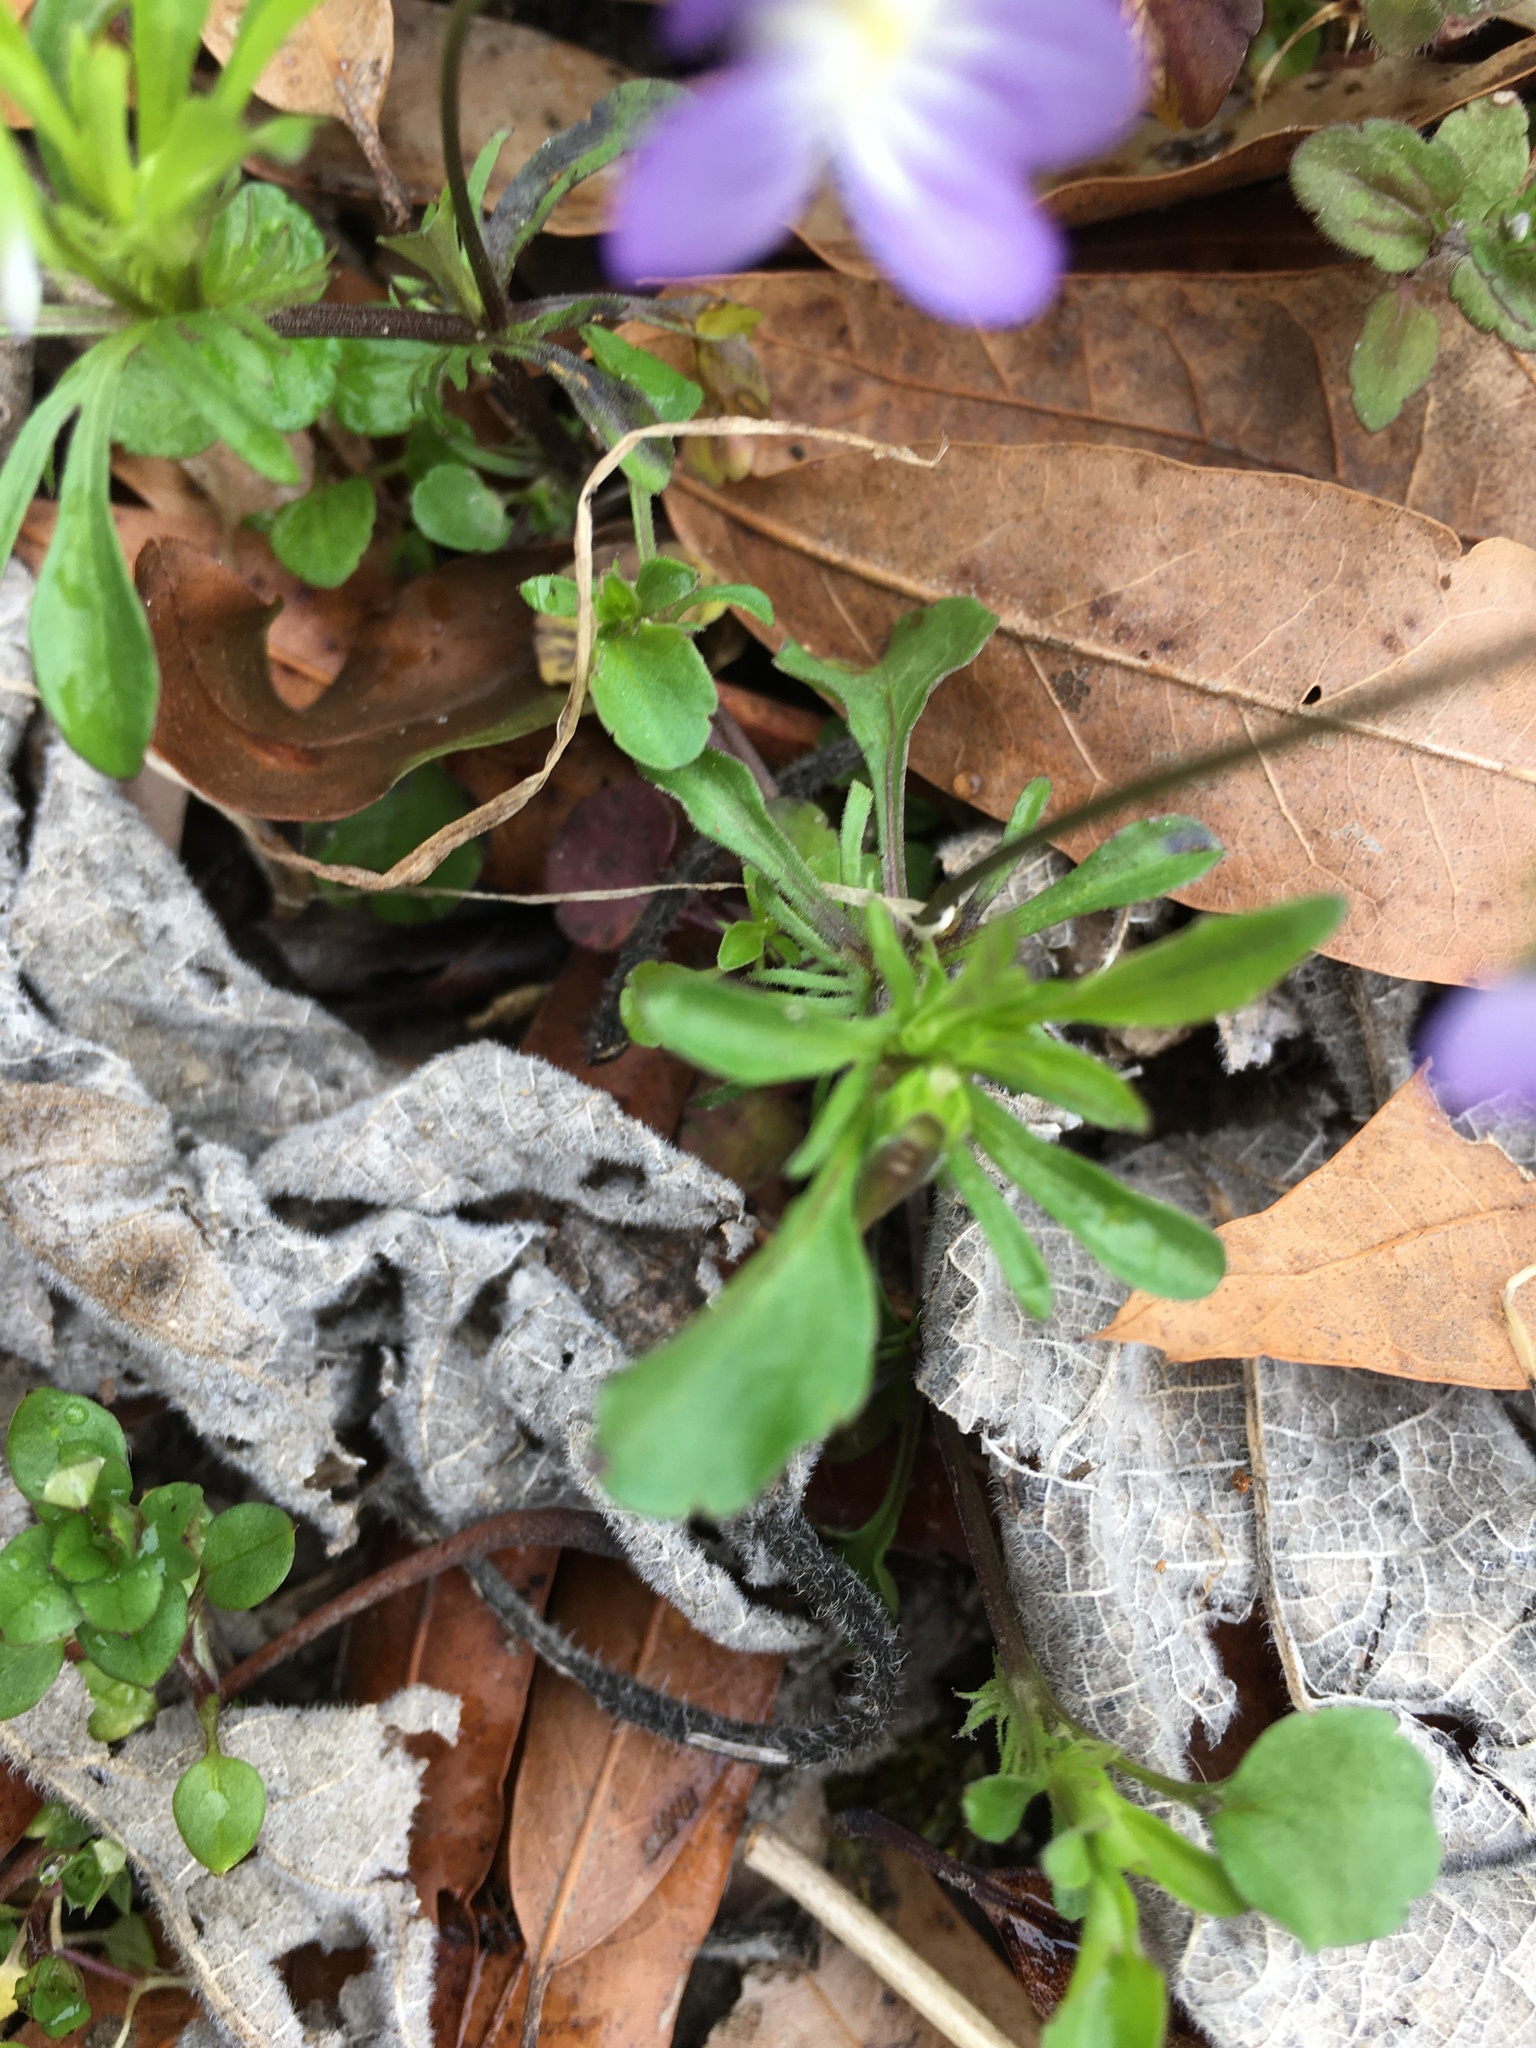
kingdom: Plantae
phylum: Tracheophyta
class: Magnoliopsida
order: Malpighiales
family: Violaceae
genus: Viola
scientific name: Viola rafinesquei
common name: American field pansy
